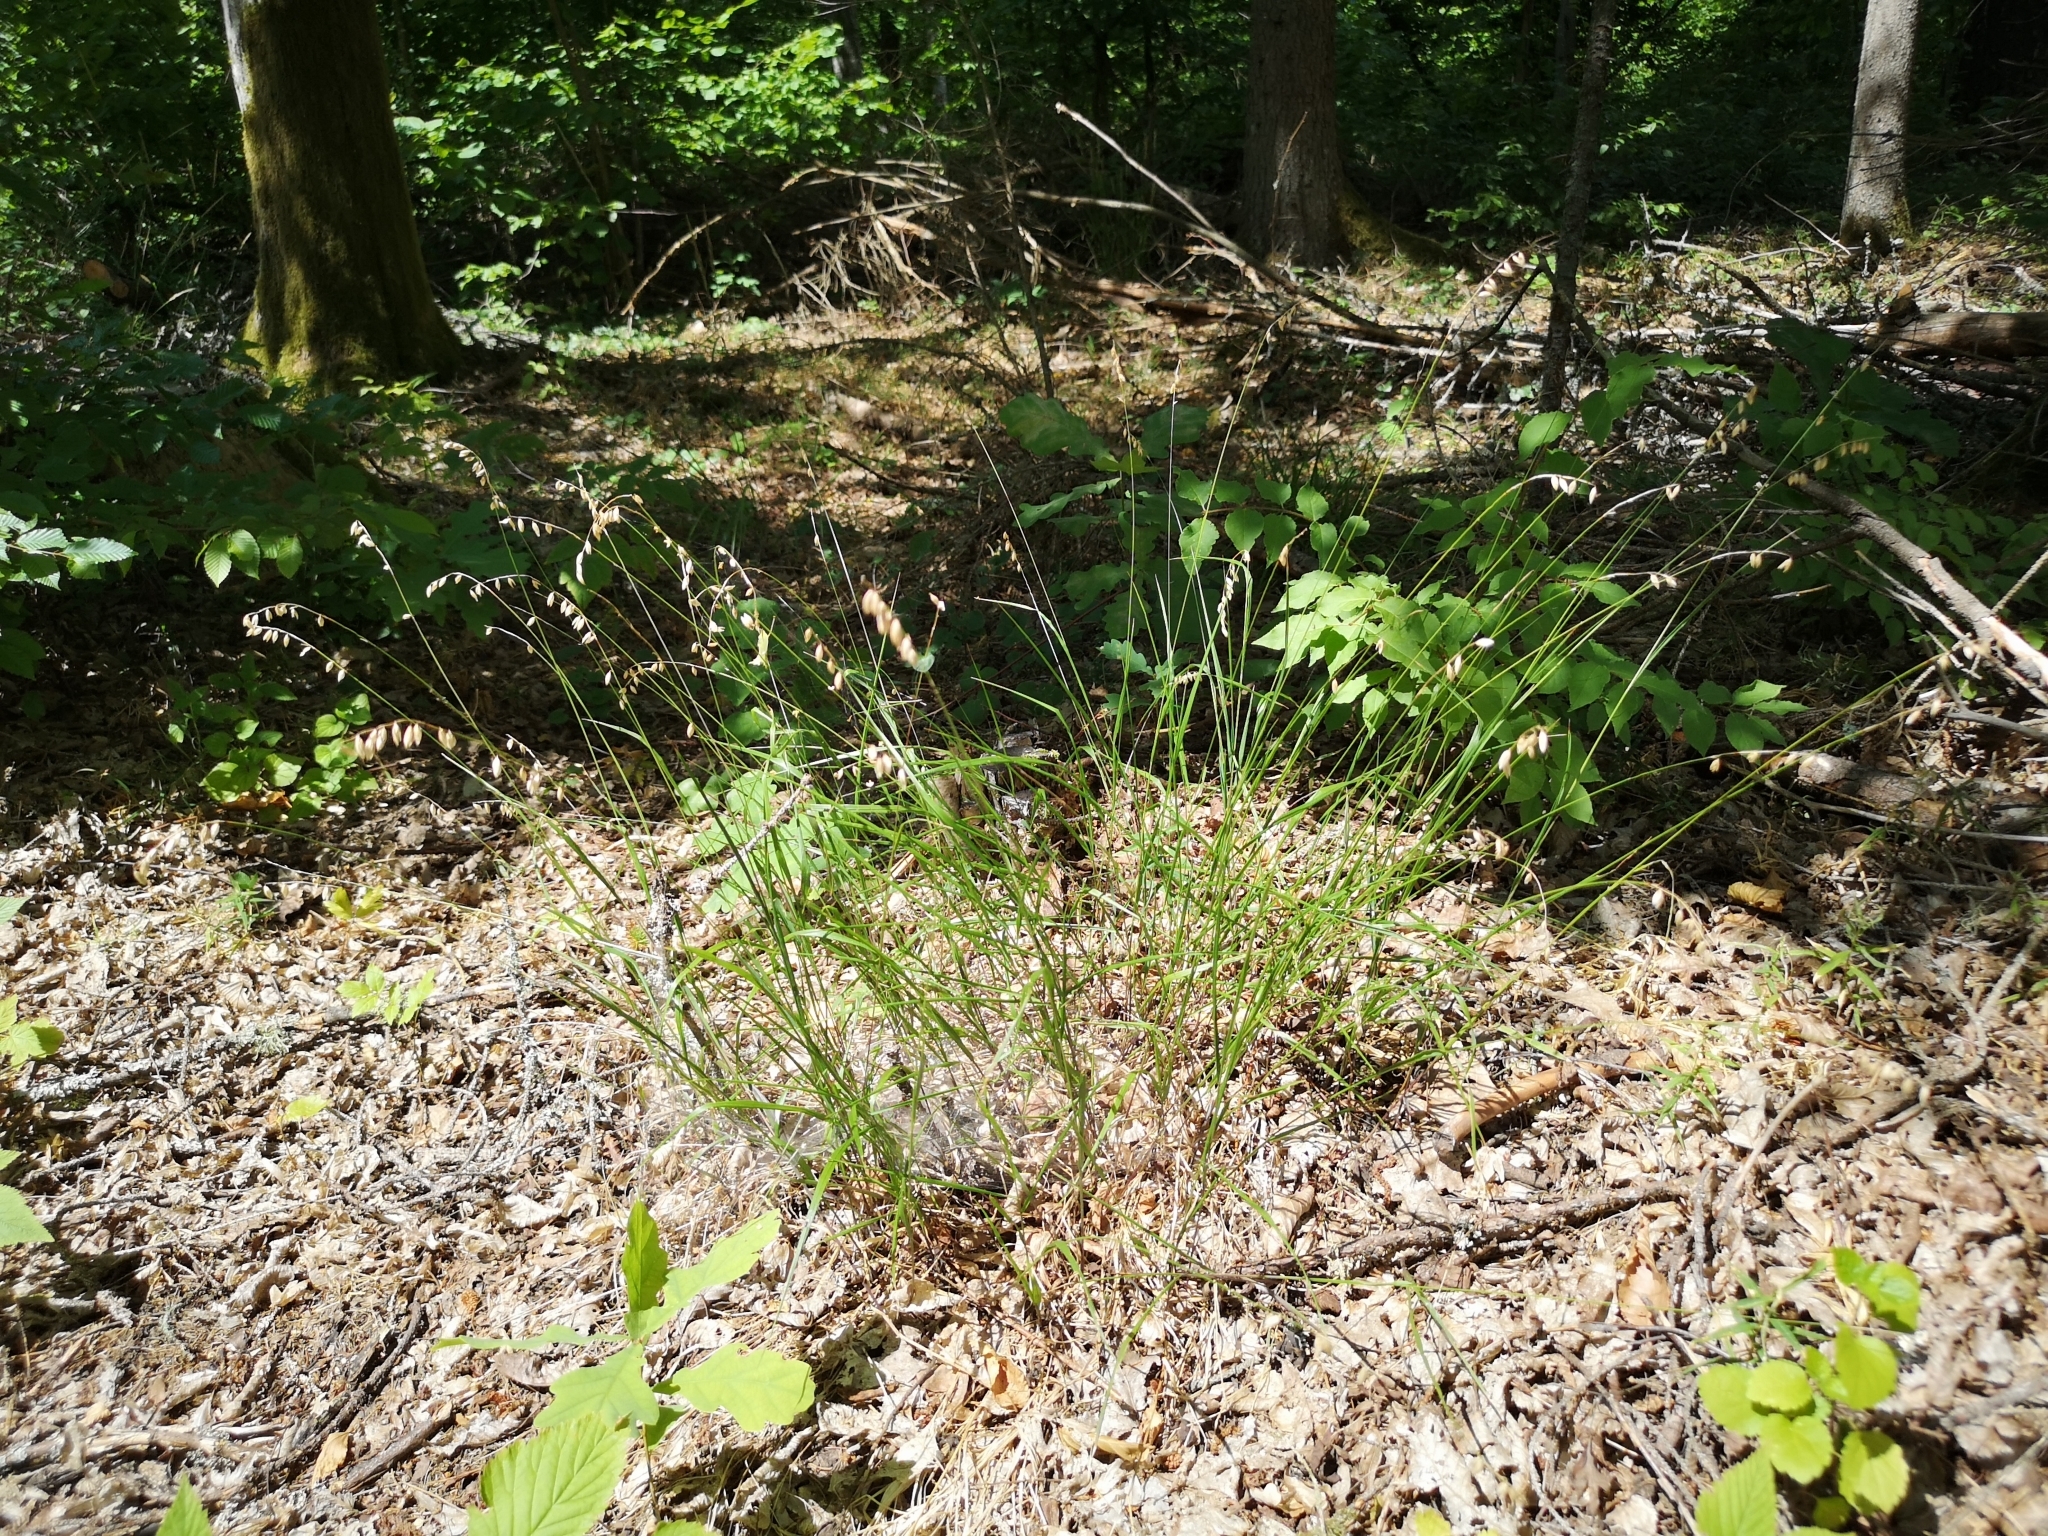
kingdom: Plantae
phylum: Tracheophyta
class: Liliopsida
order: Poales
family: Poaceae
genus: Melica
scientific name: Melica nutans
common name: Mountain melick
